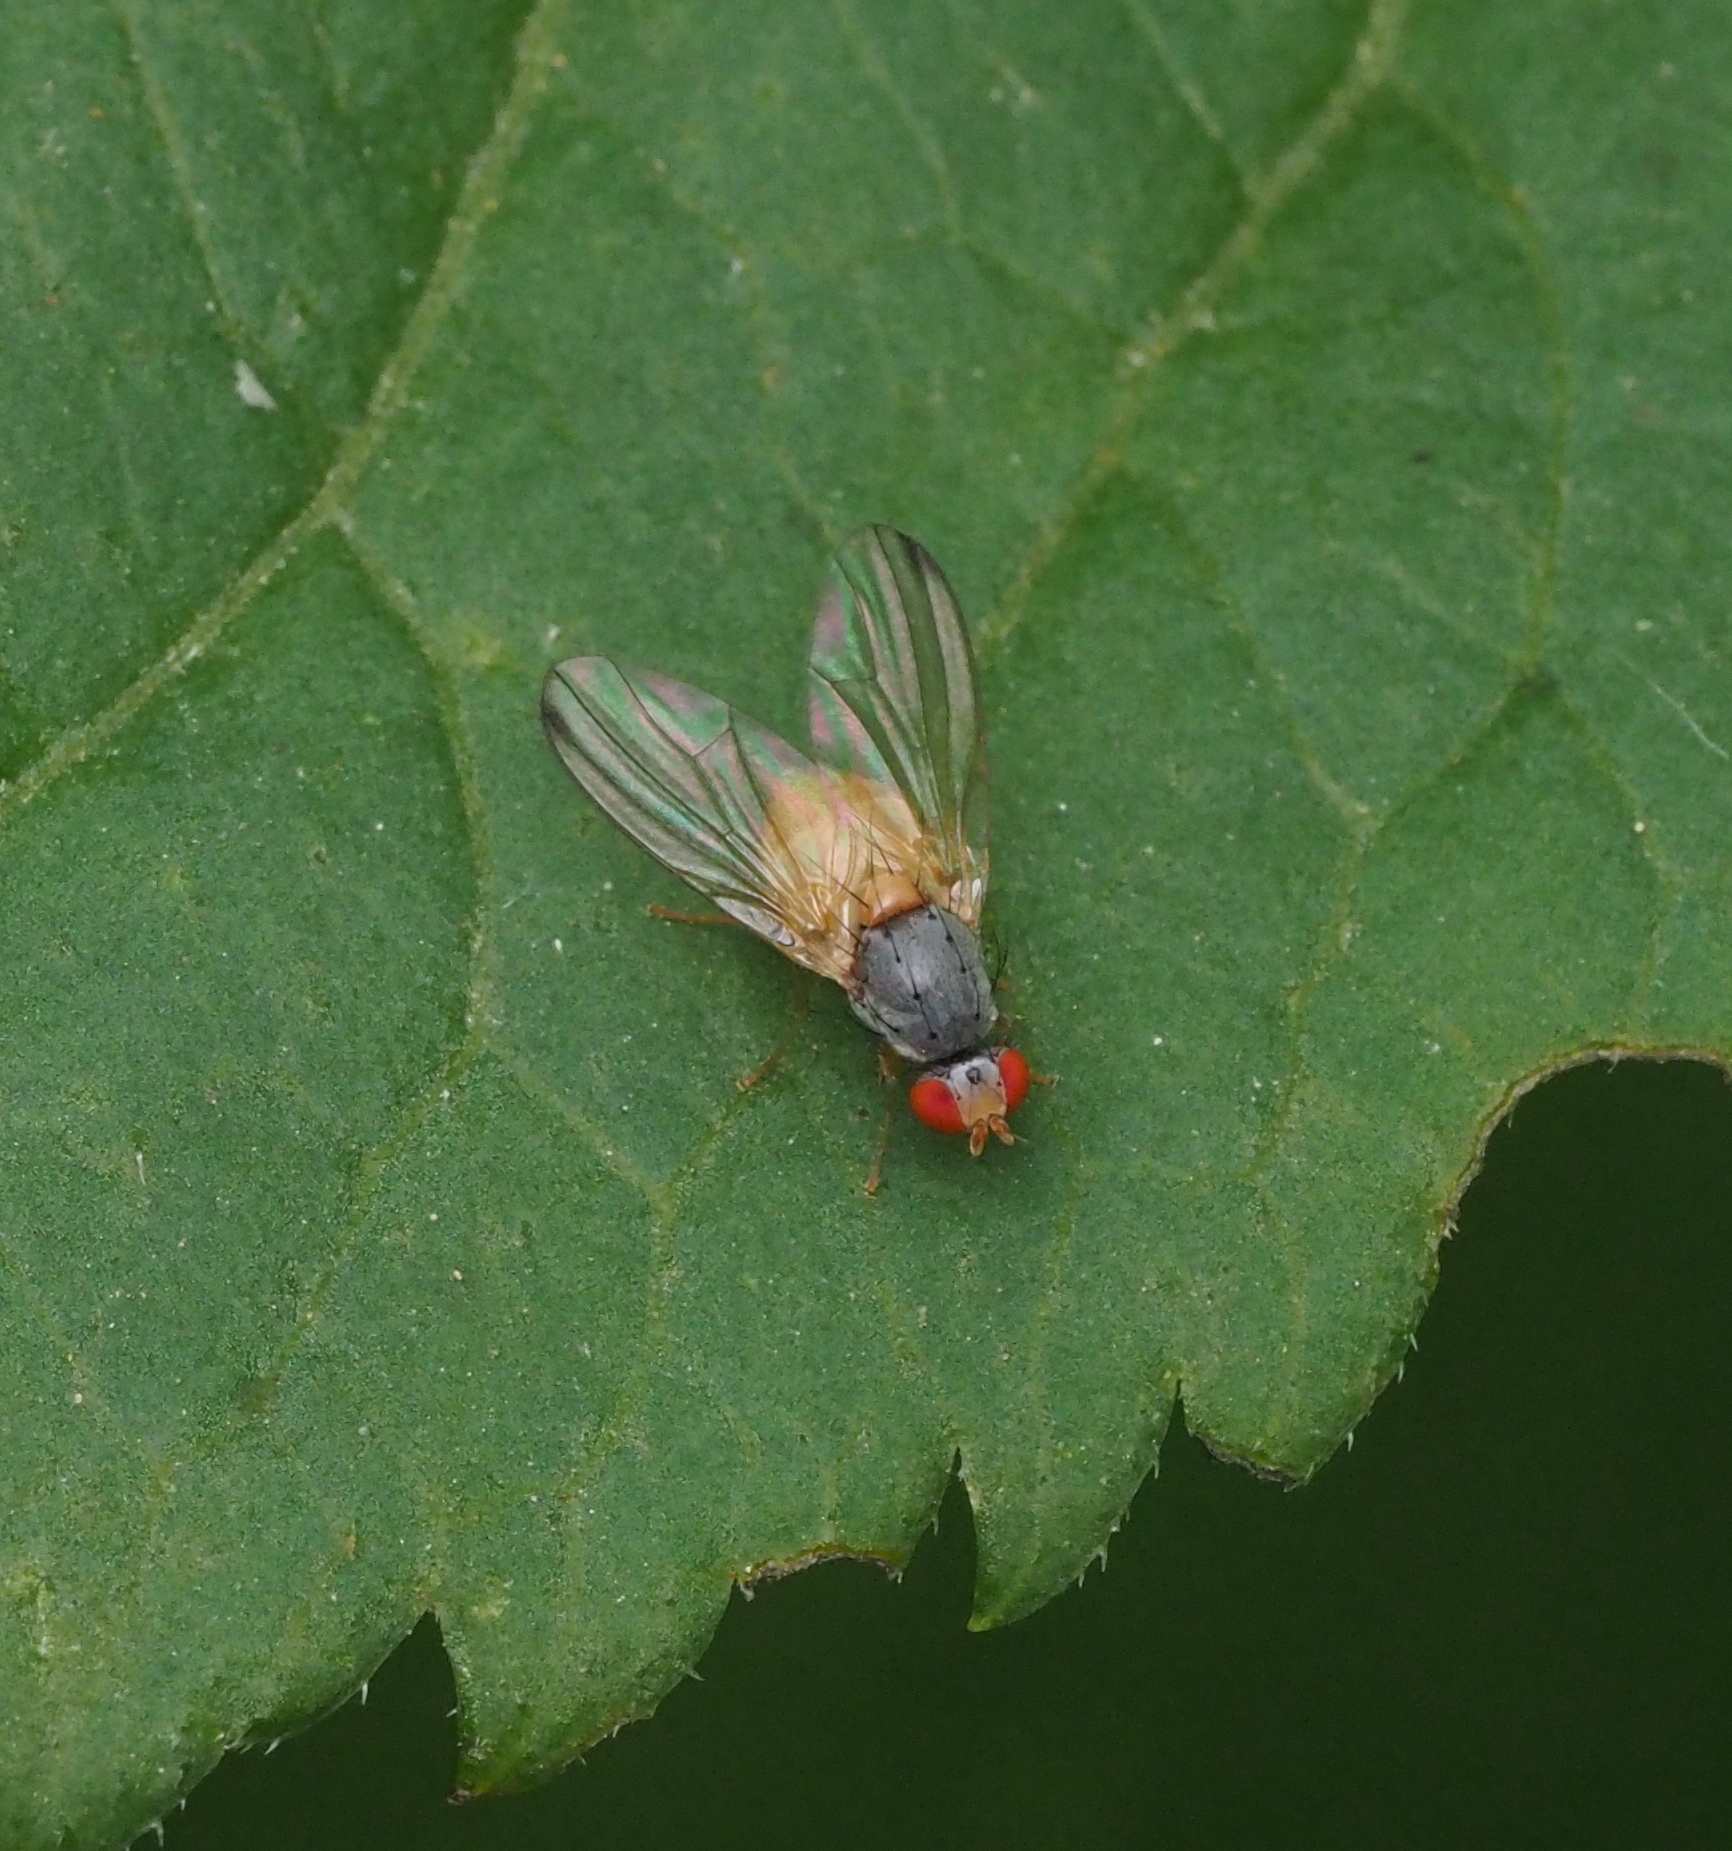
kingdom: Animalia
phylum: Arthropoda
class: Insecta
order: Diptera
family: Pallopteridae
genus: Palloptera
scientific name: Palloptera
